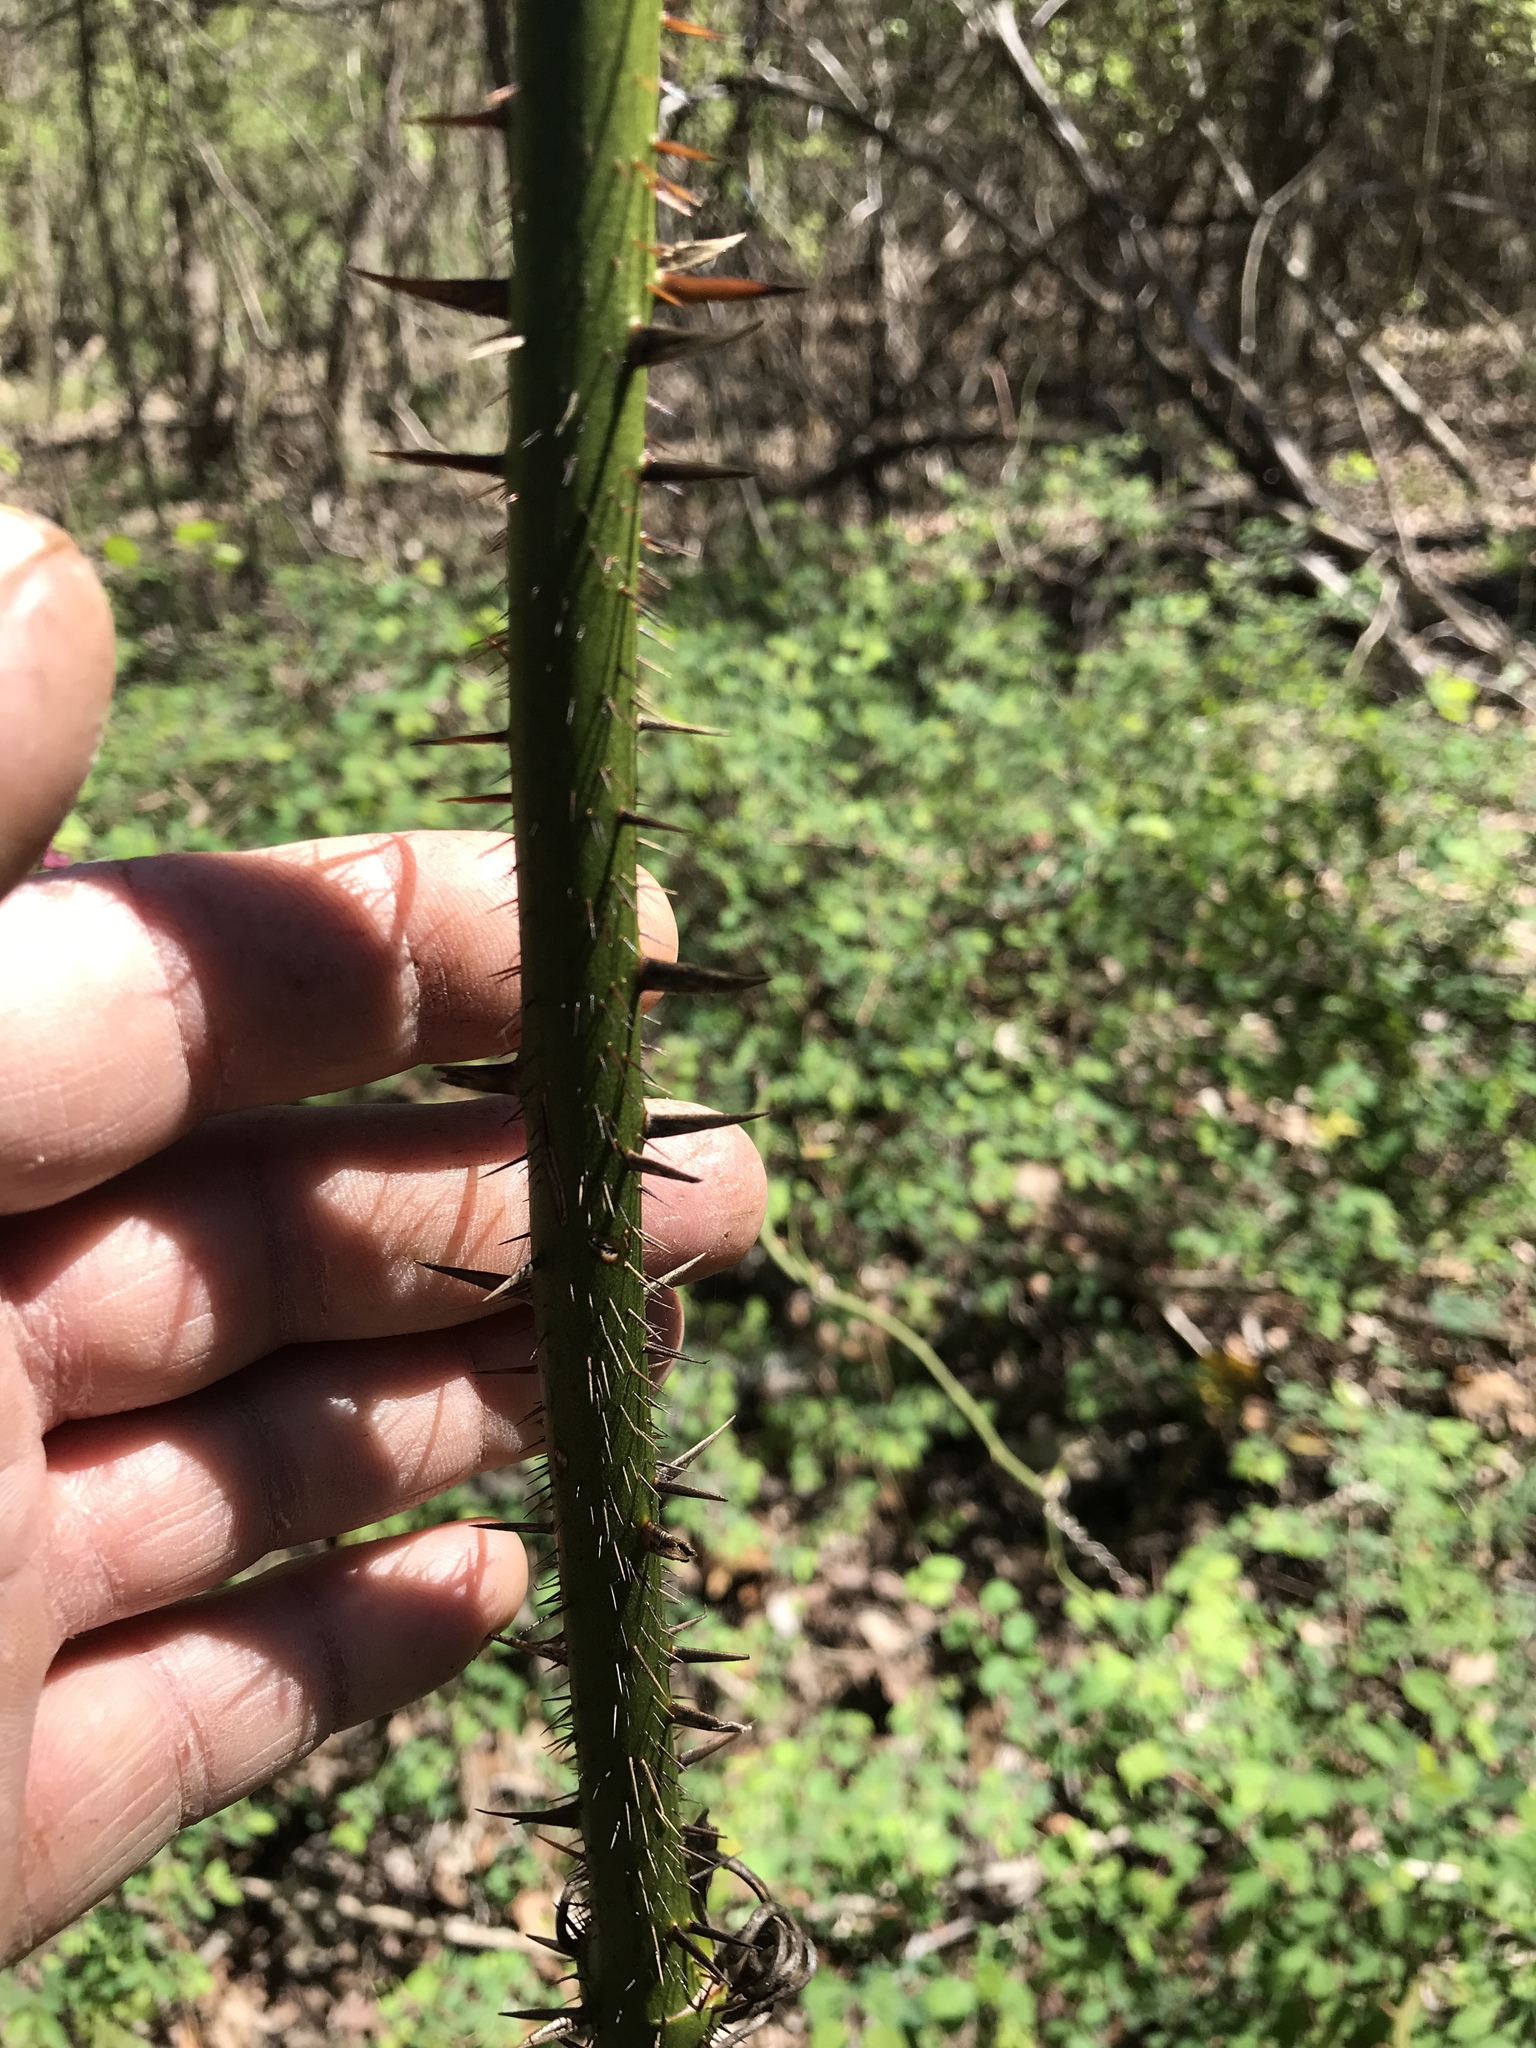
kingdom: Plantae
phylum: Tracheophyta
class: Liliopsida
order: Liliales
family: Smilacaceae
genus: Smilax
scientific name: Smilax tamnoides
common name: Hellfetter
